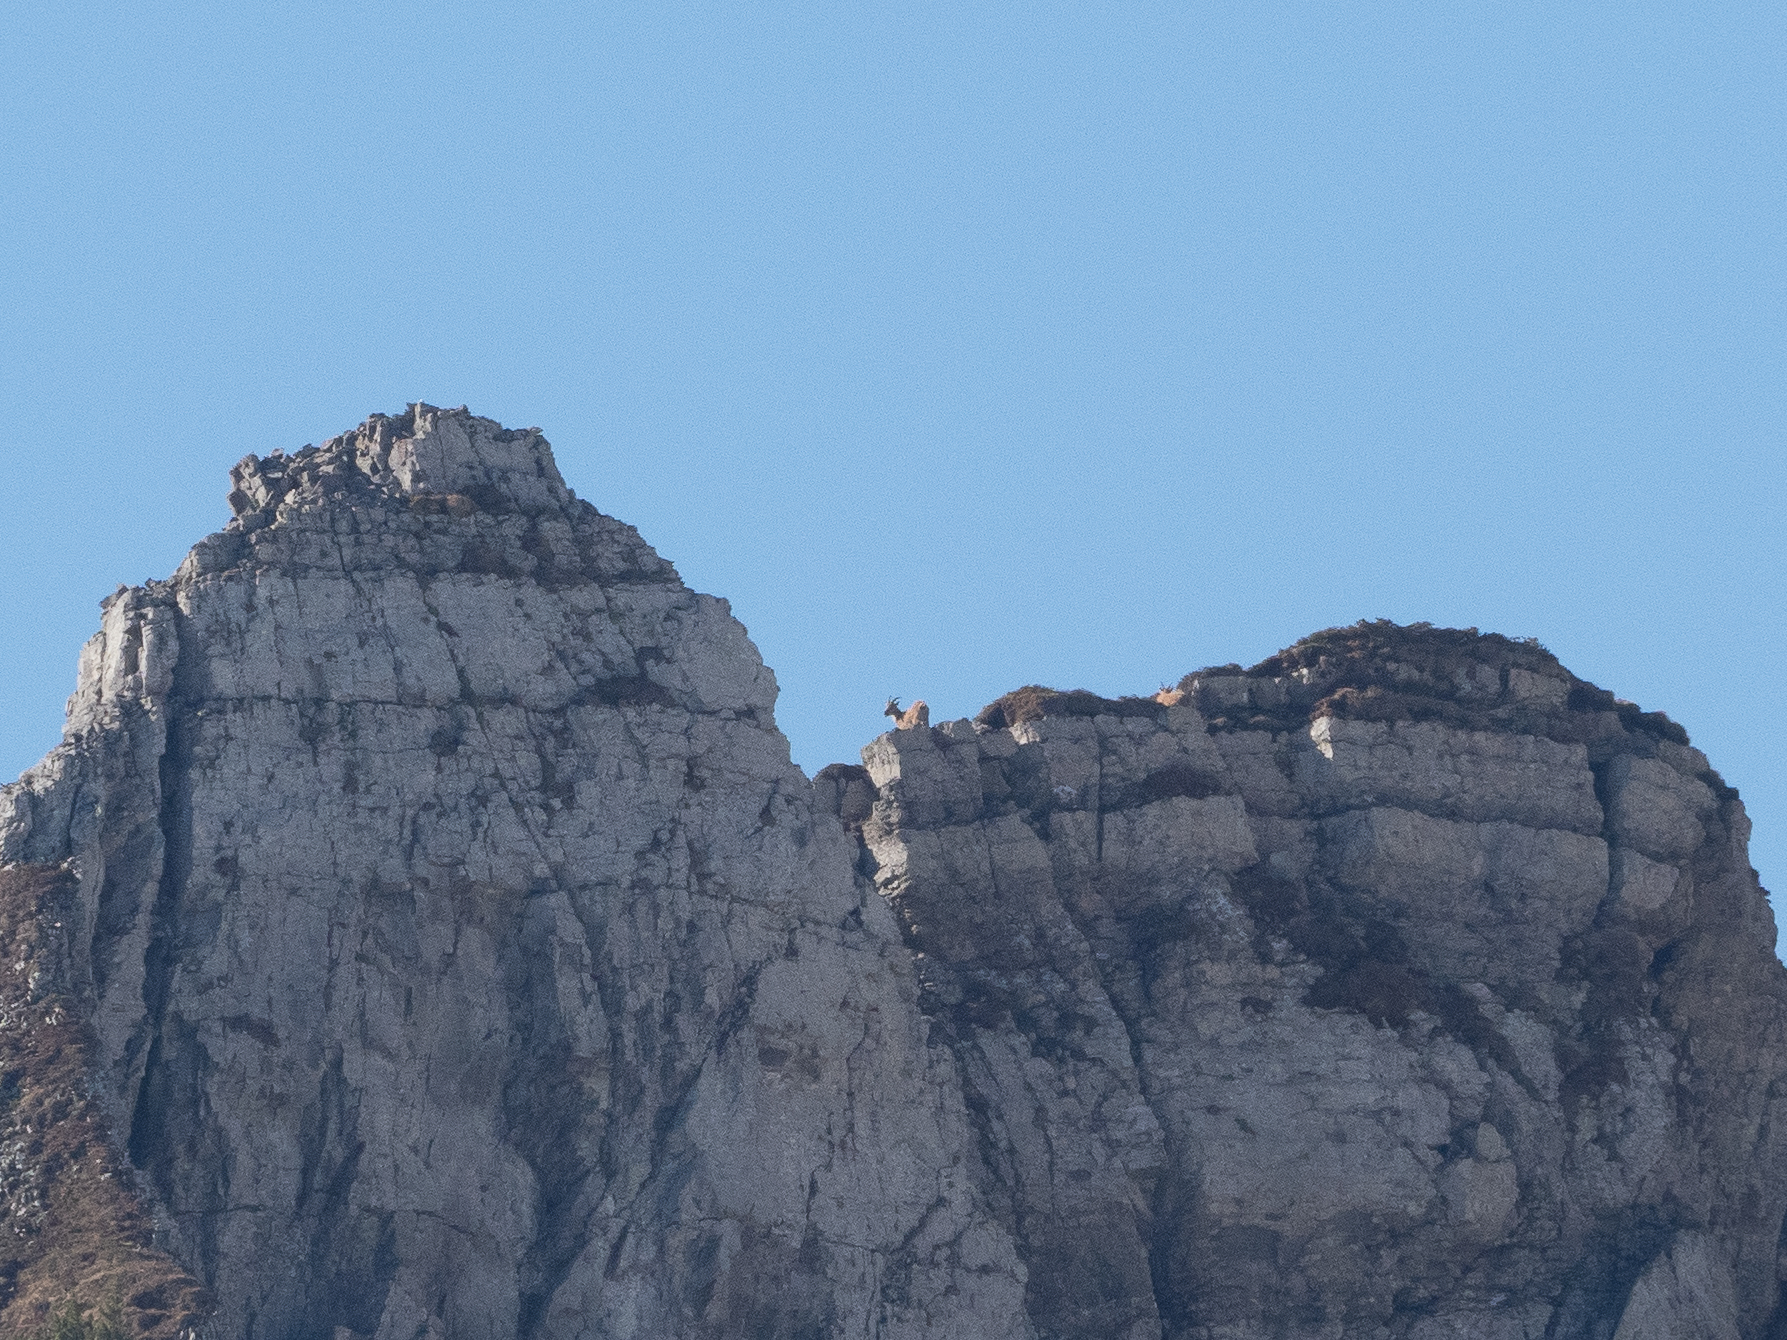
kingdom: Animalia
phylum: Chordata
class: Mammalia
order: Artiodactyla
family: Bovidae
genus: Capra
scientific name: Capra ibex
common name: Alpine ibex
